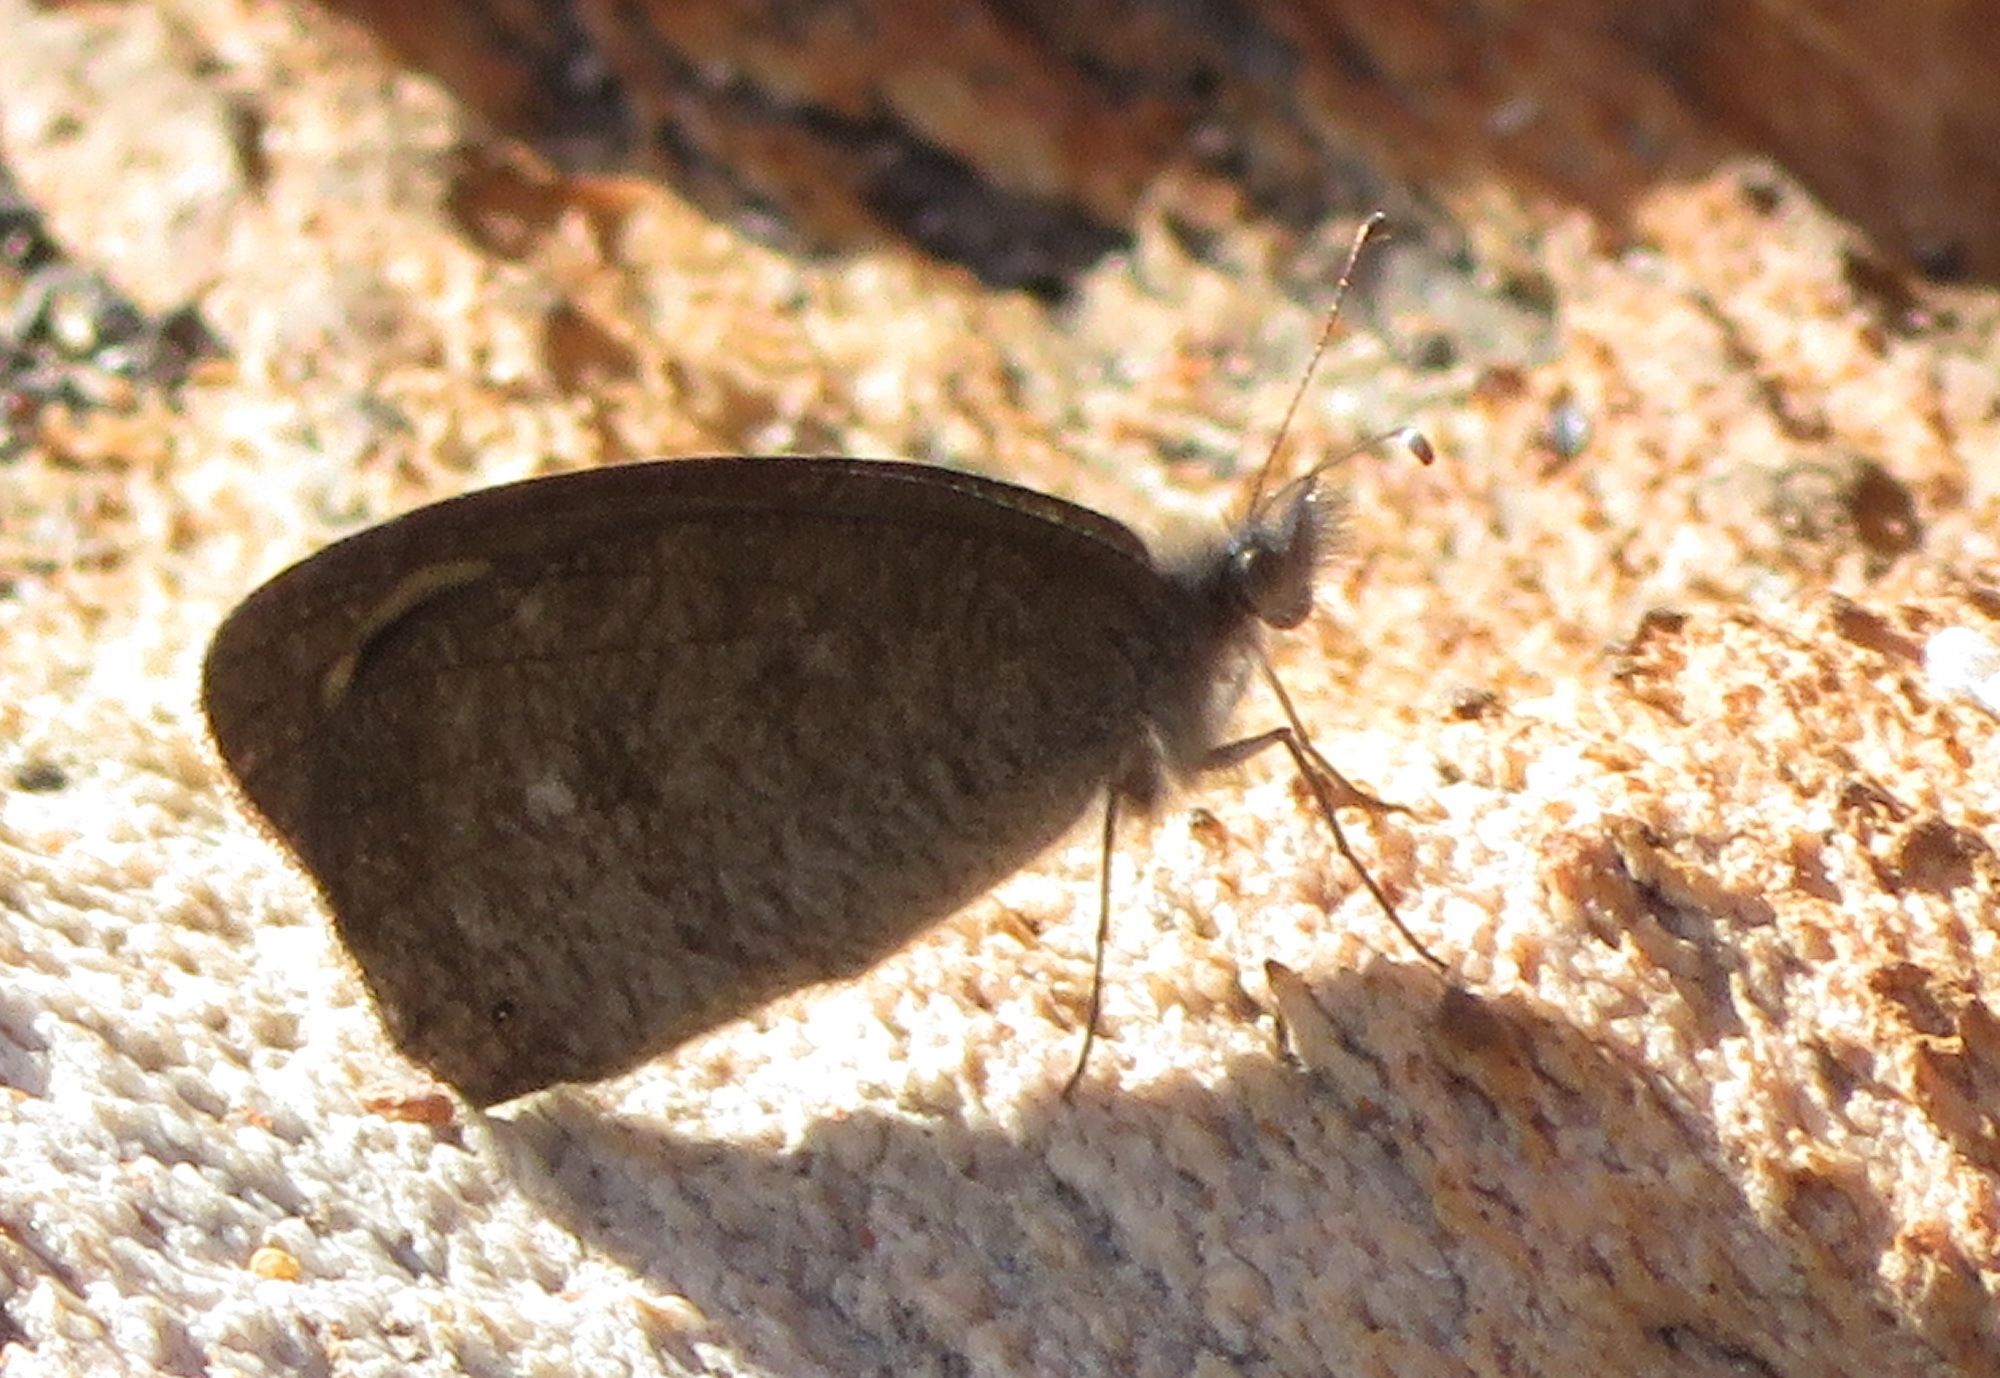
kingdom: Animalia
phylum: Arthropoda
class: Insecta
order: Lepidoptera
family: Nymphalidae
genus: Stygionympha
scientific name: Stygionympha vigilans
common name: Western hillside brown
